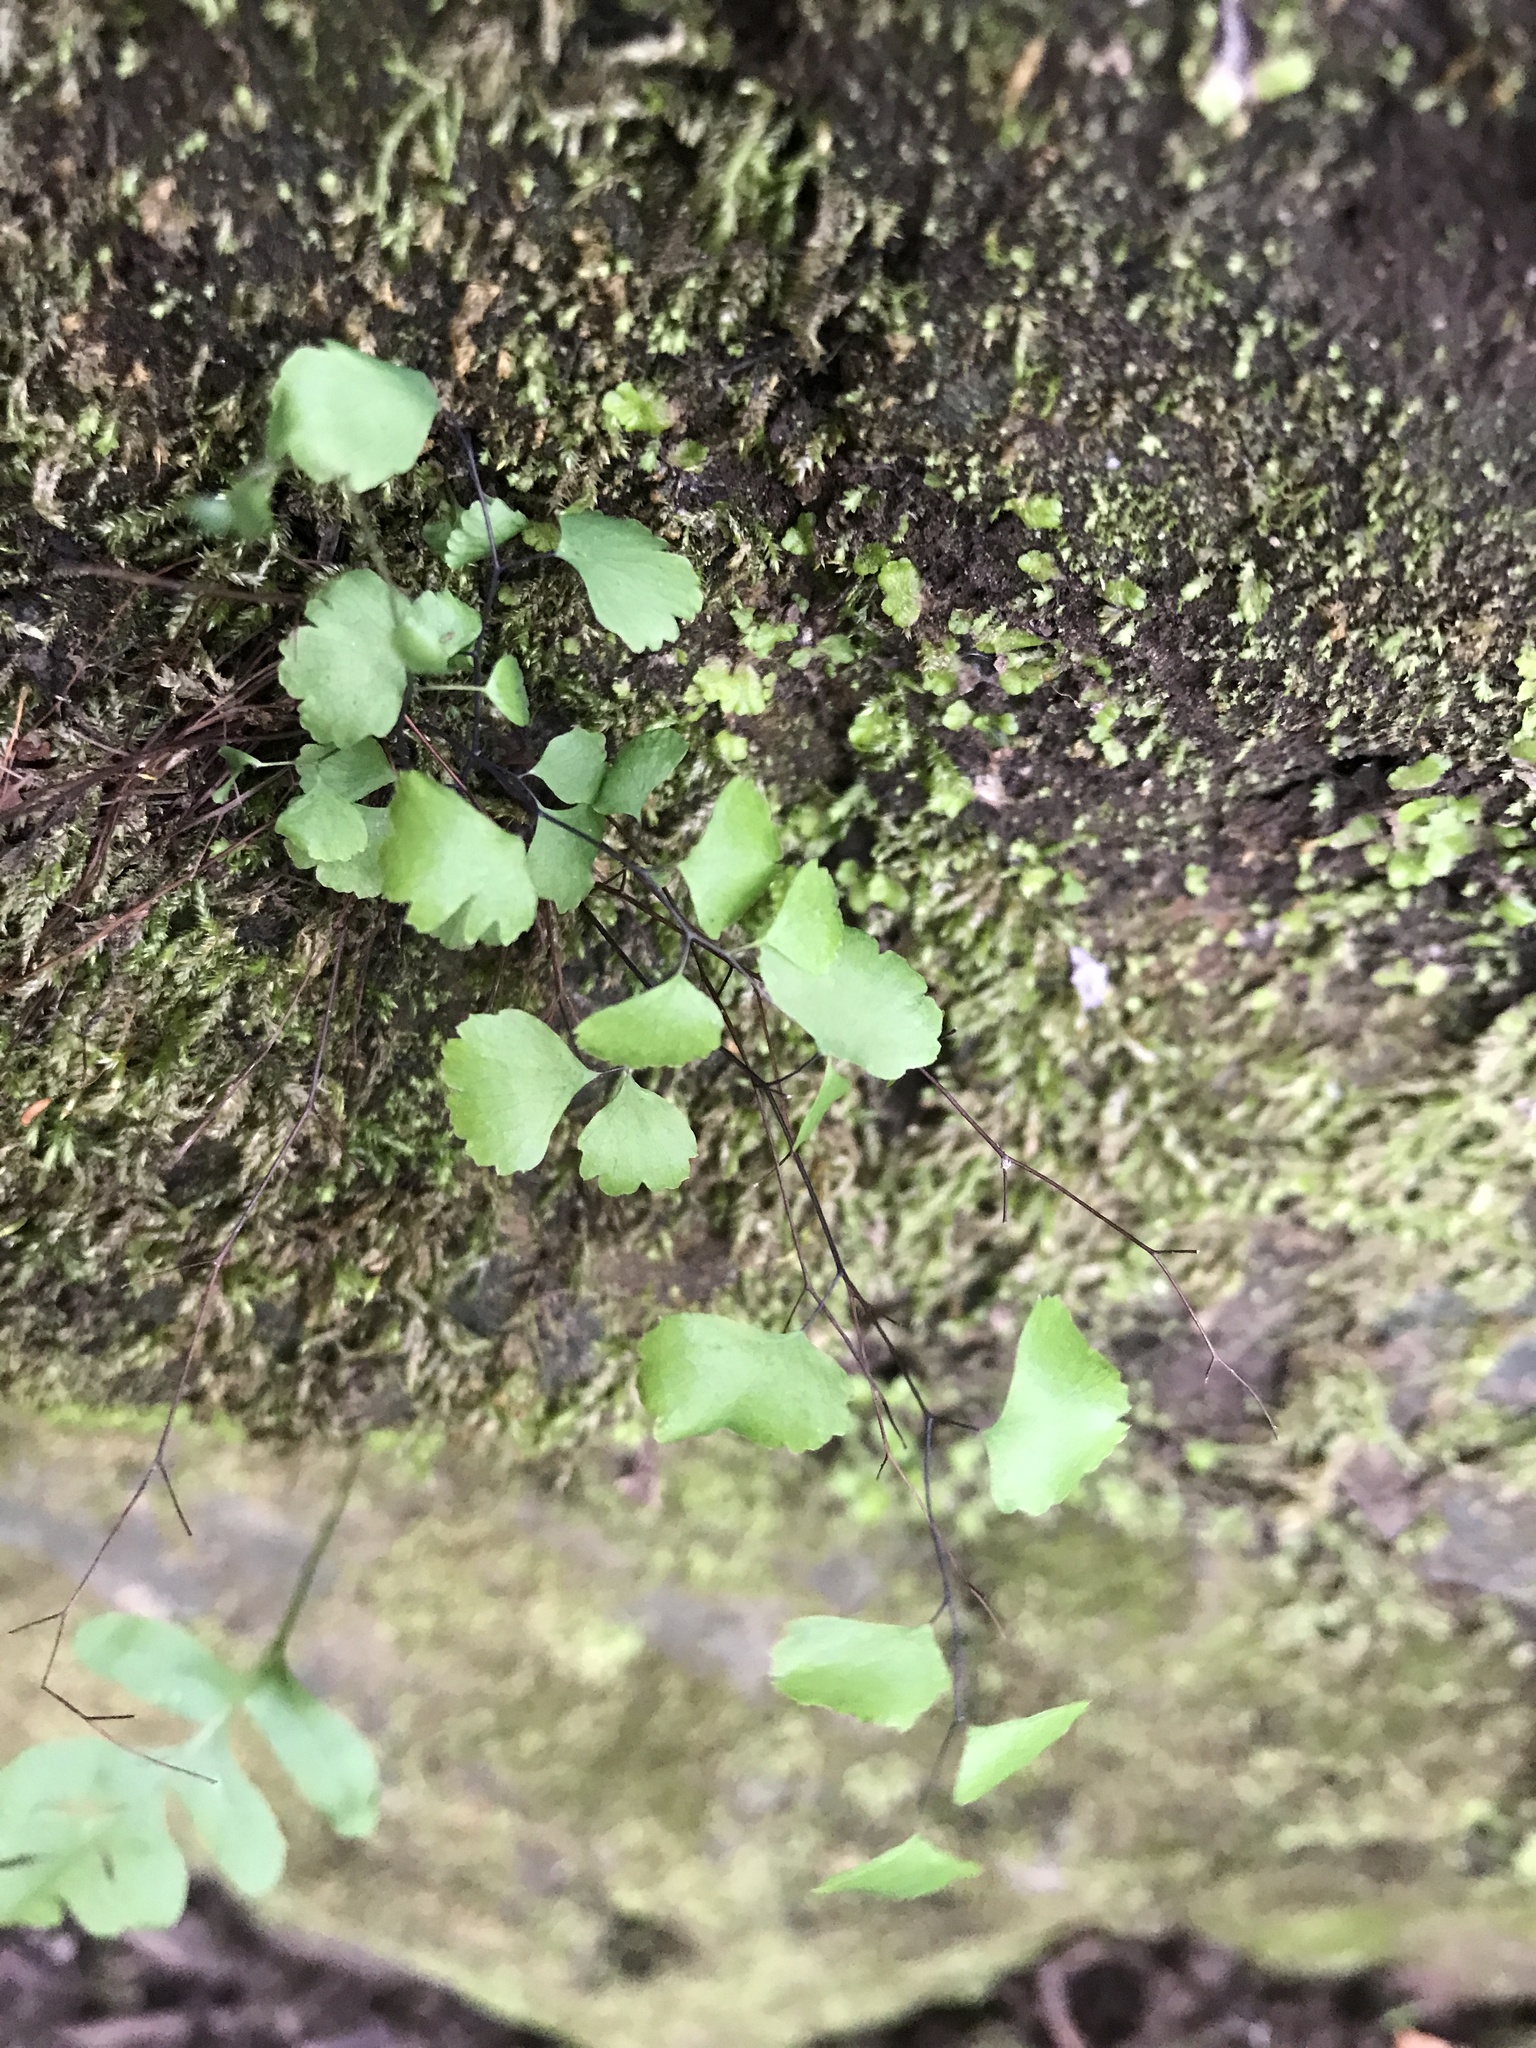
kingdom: Plantae
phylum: Tracheophyta
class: Polypodiopsida
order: Polypodiales
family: Pteridaceae
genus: Adiantum
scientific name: Adiantum jordanii
